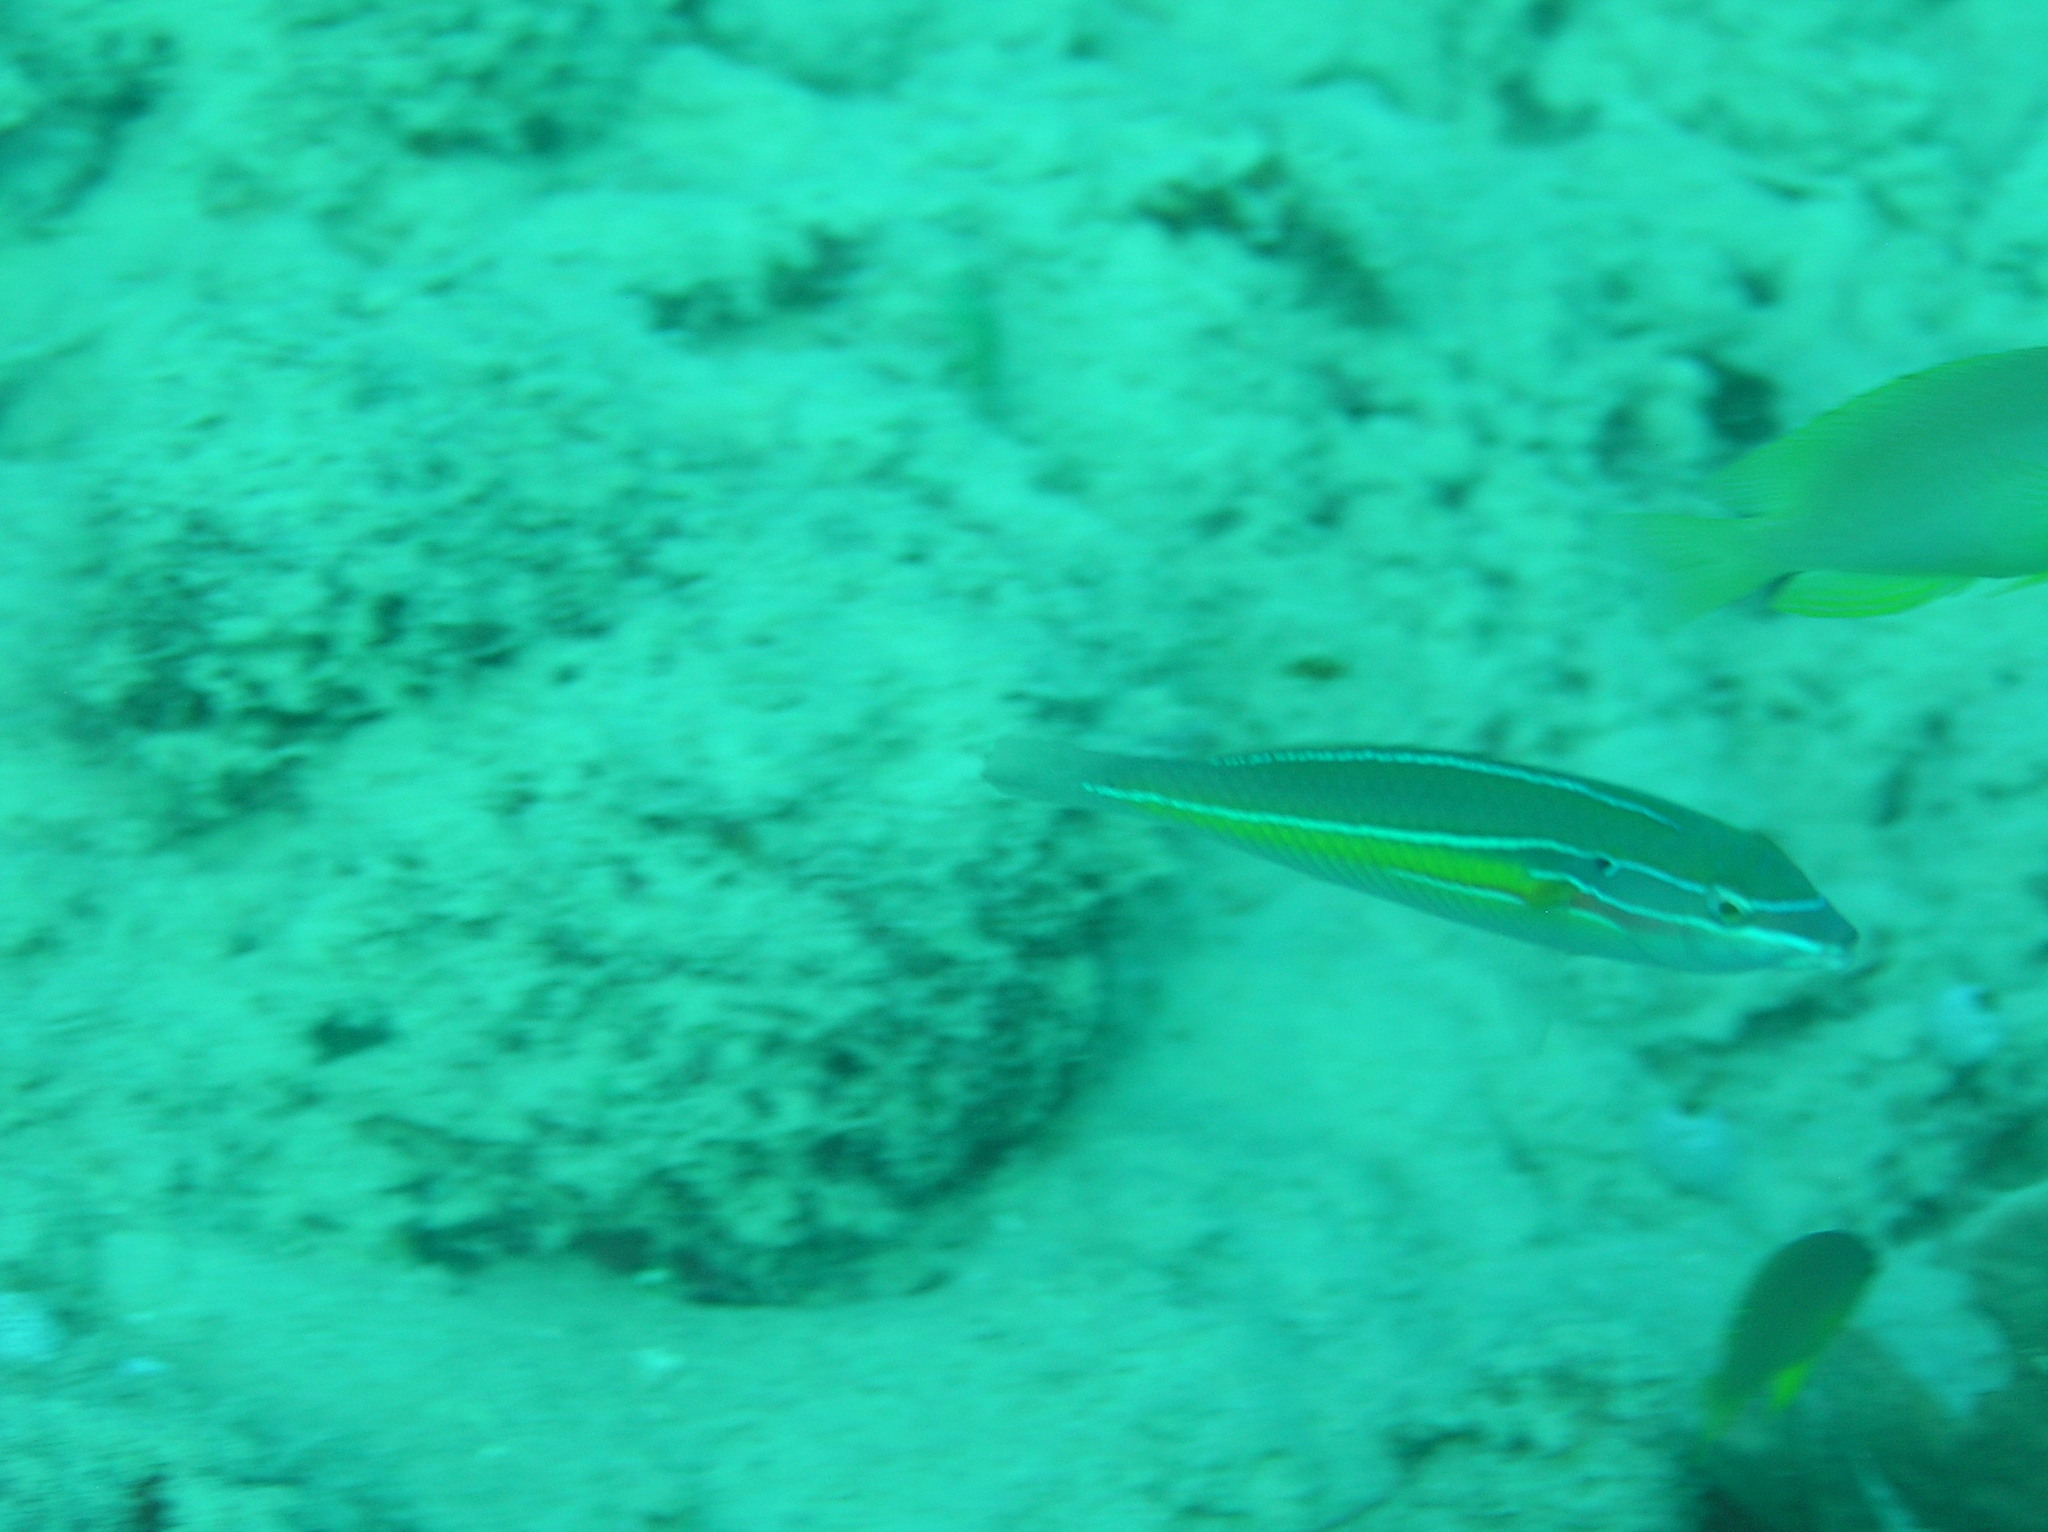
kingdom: Animalia
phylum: Chordata
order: Perciformes
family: Labridae
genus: Stethojulis
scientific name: Stethojulis strigiventer
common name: Three-ribbon wrasse
